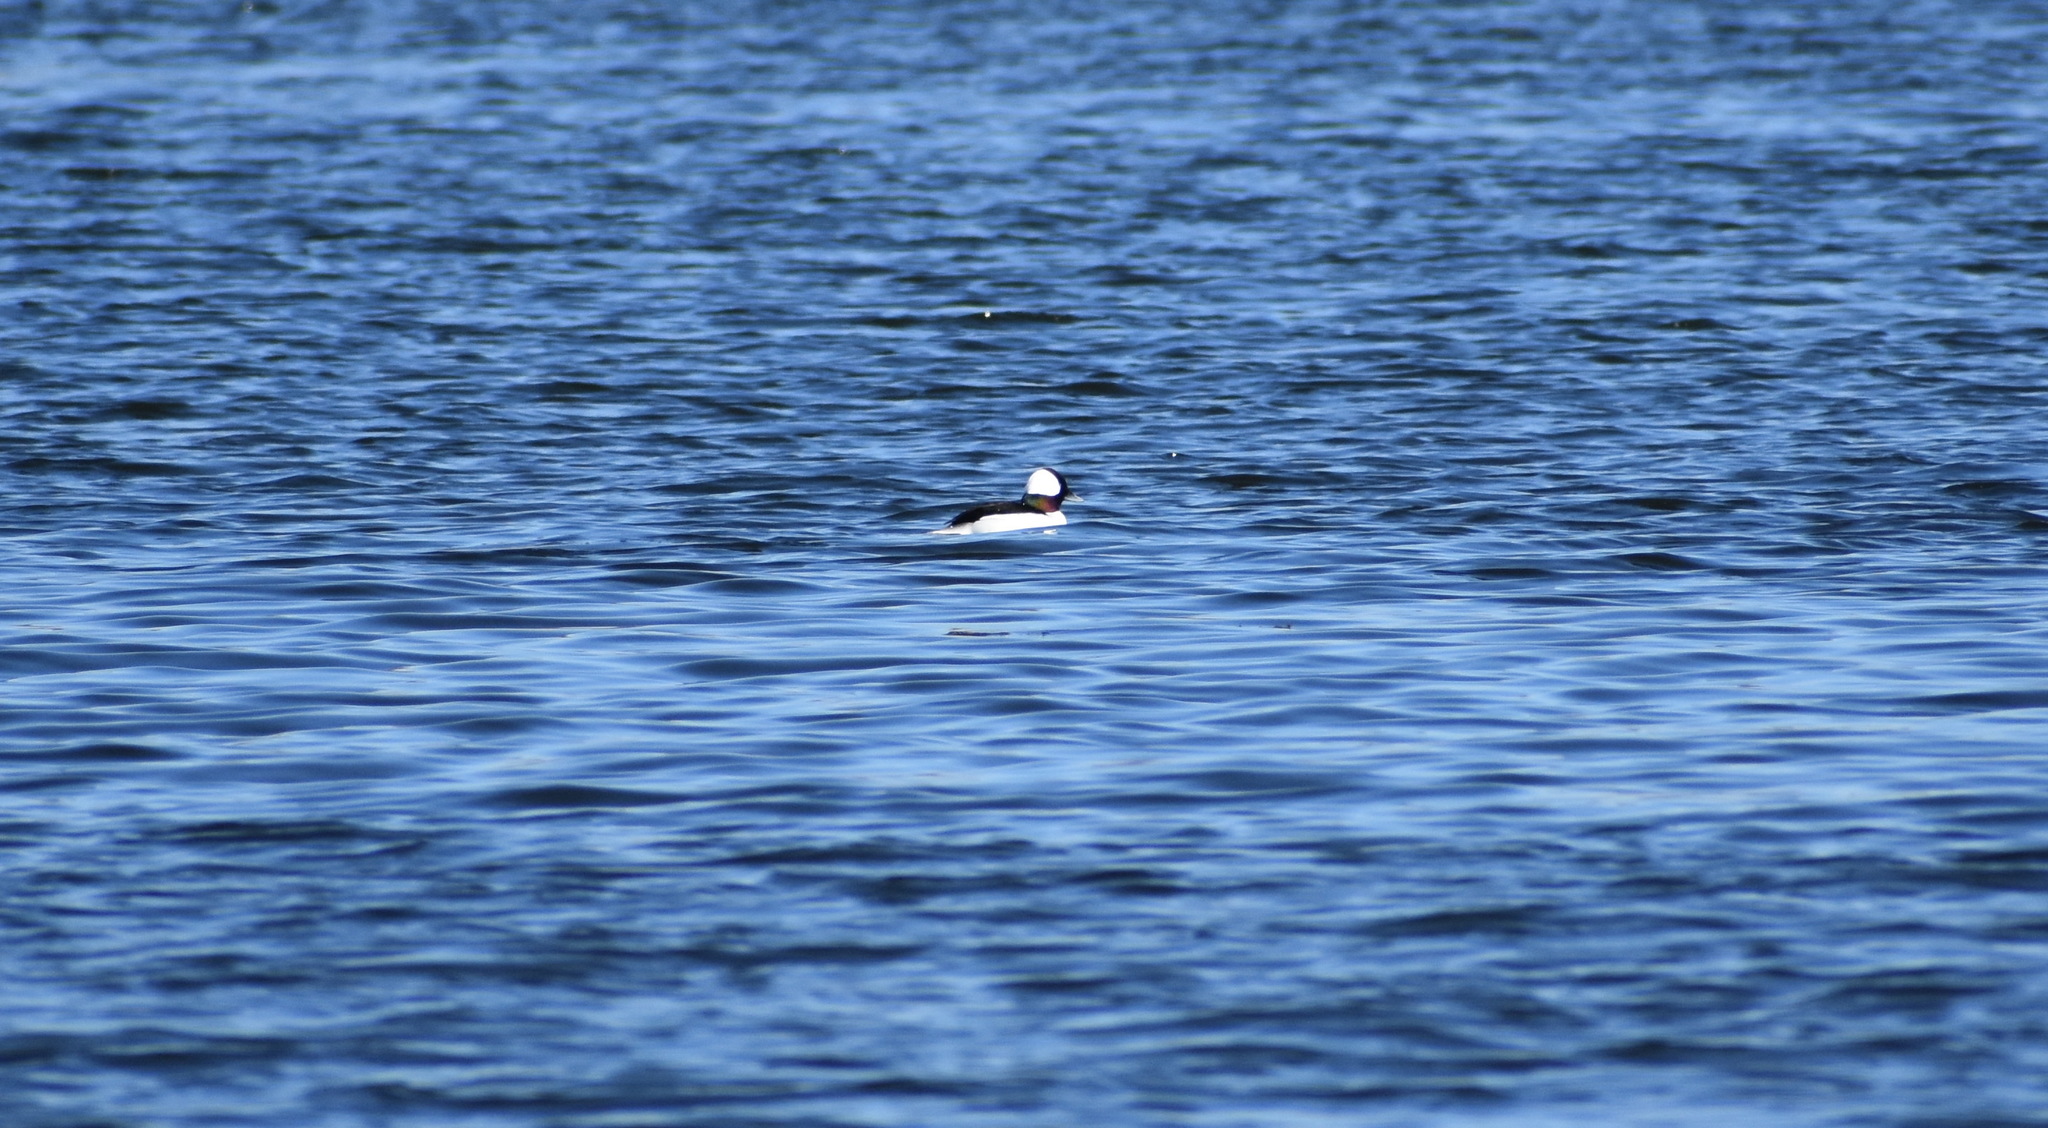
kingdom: Animalia
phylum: Chordata
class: Aves
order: Anseriformes
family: Anatidae
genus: Bucephala
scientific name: Bucephala albeola
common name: Bufflehead
